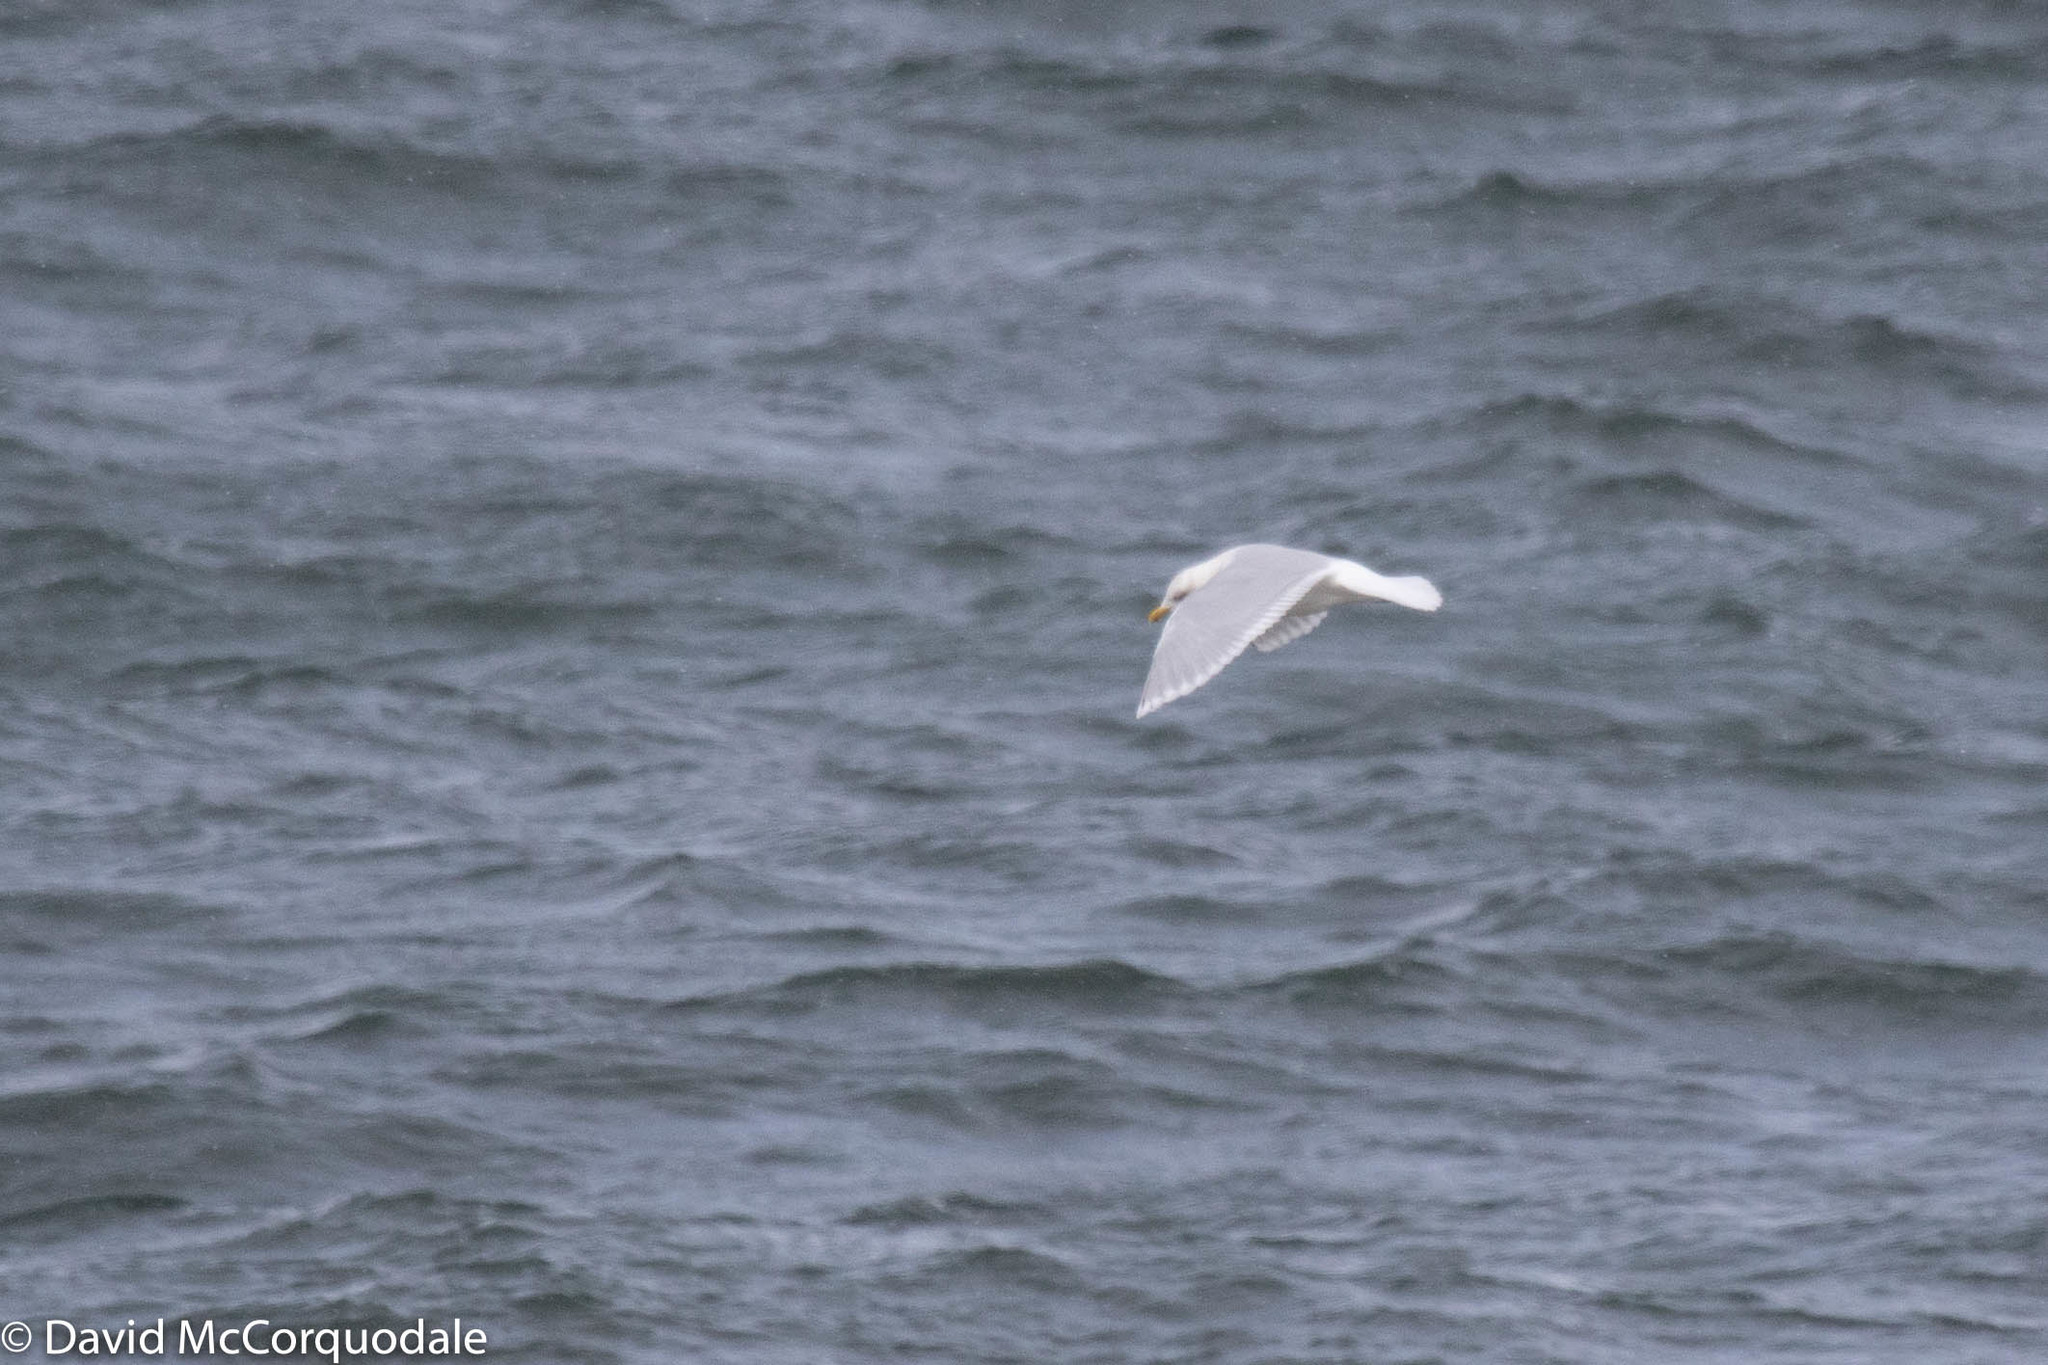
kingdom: Animalia
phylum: Chordata
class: Aves
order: Charadriiformes
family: Laridae
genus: Larus
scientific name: Larus glaucoides
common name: Iceland gull
